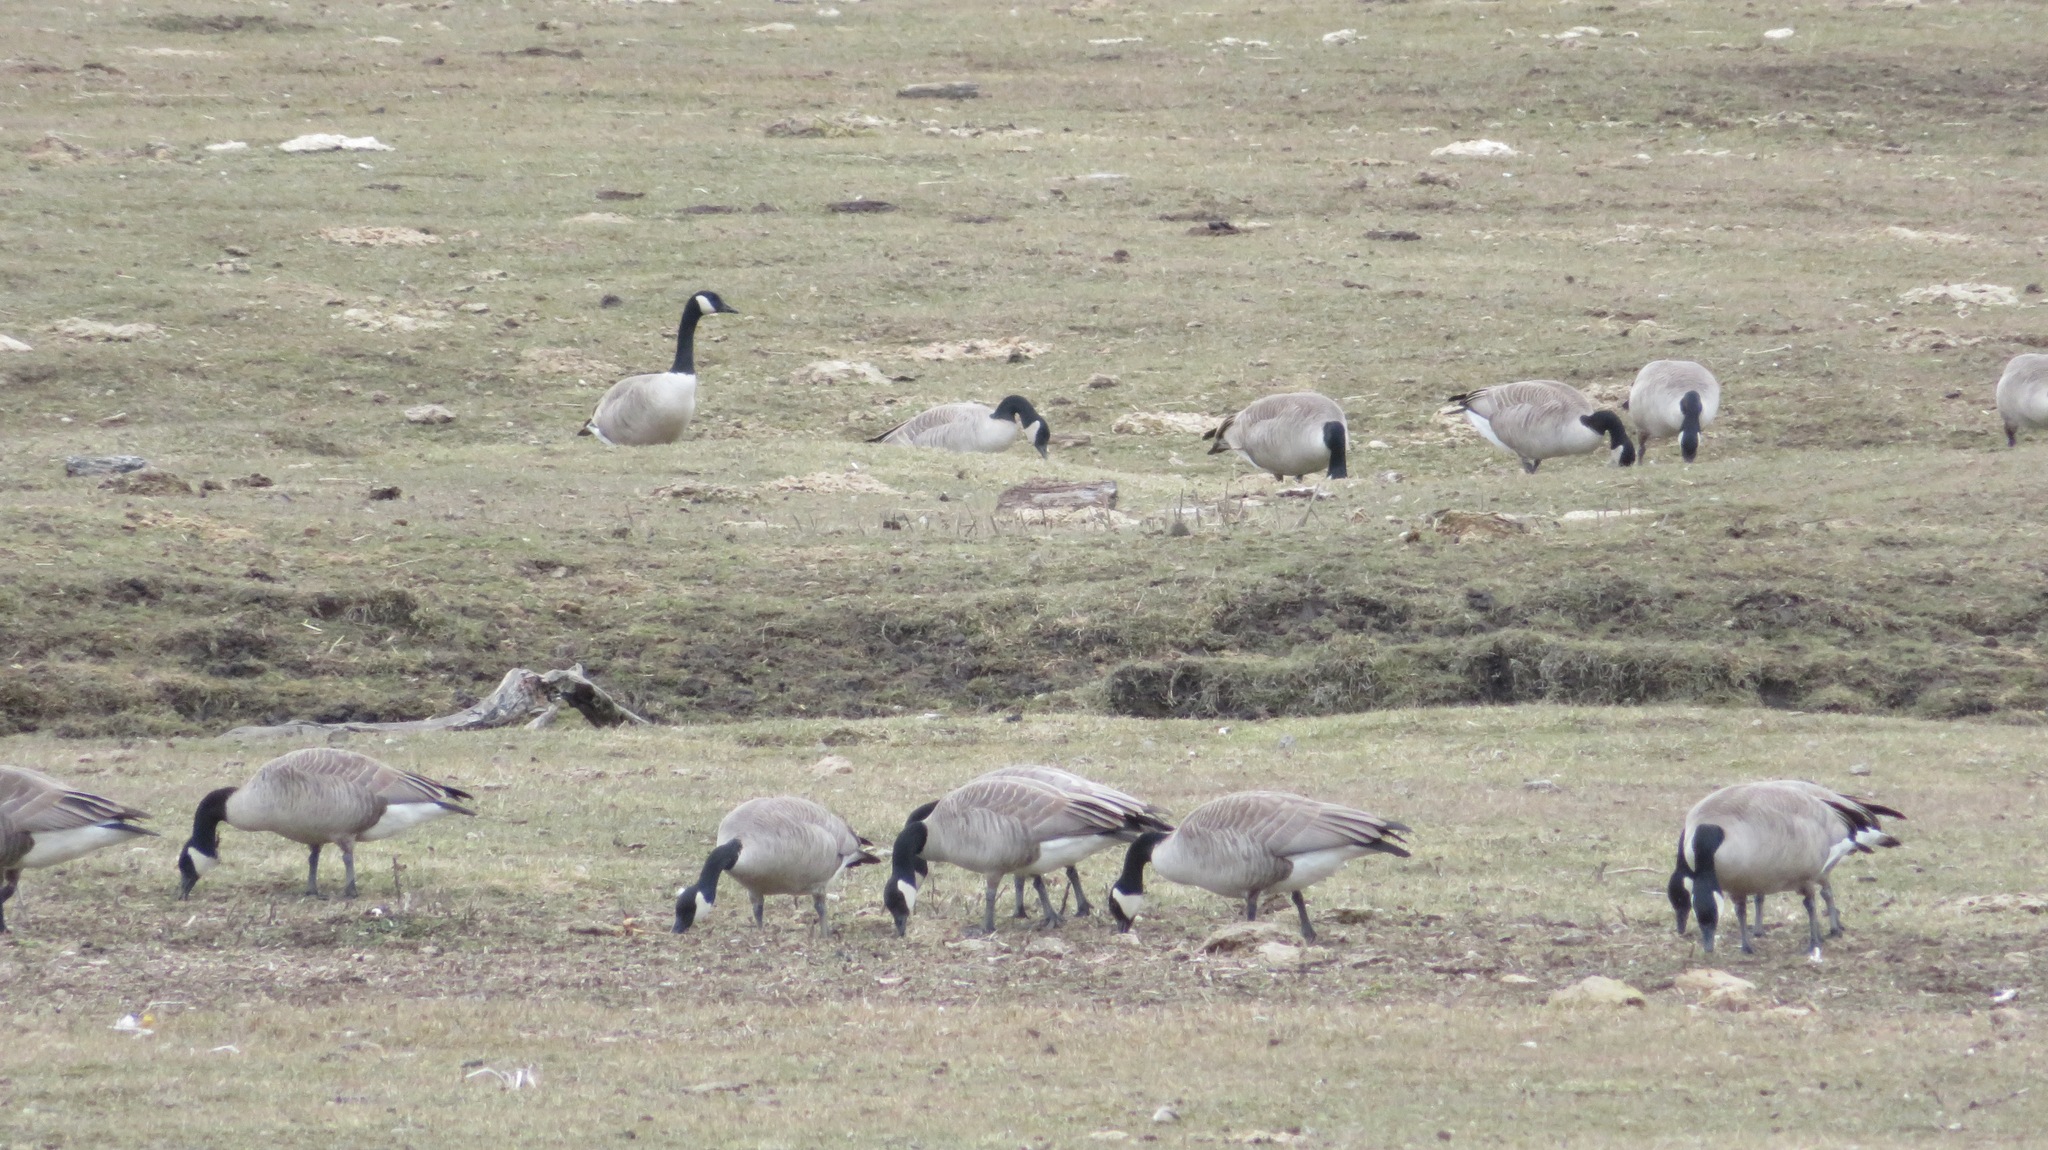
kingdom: Animalia
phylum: Chordata
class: Aves
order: Anseriformes
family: Anatidae
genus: Branta
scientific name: Branta canadensis
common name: Canada goose
